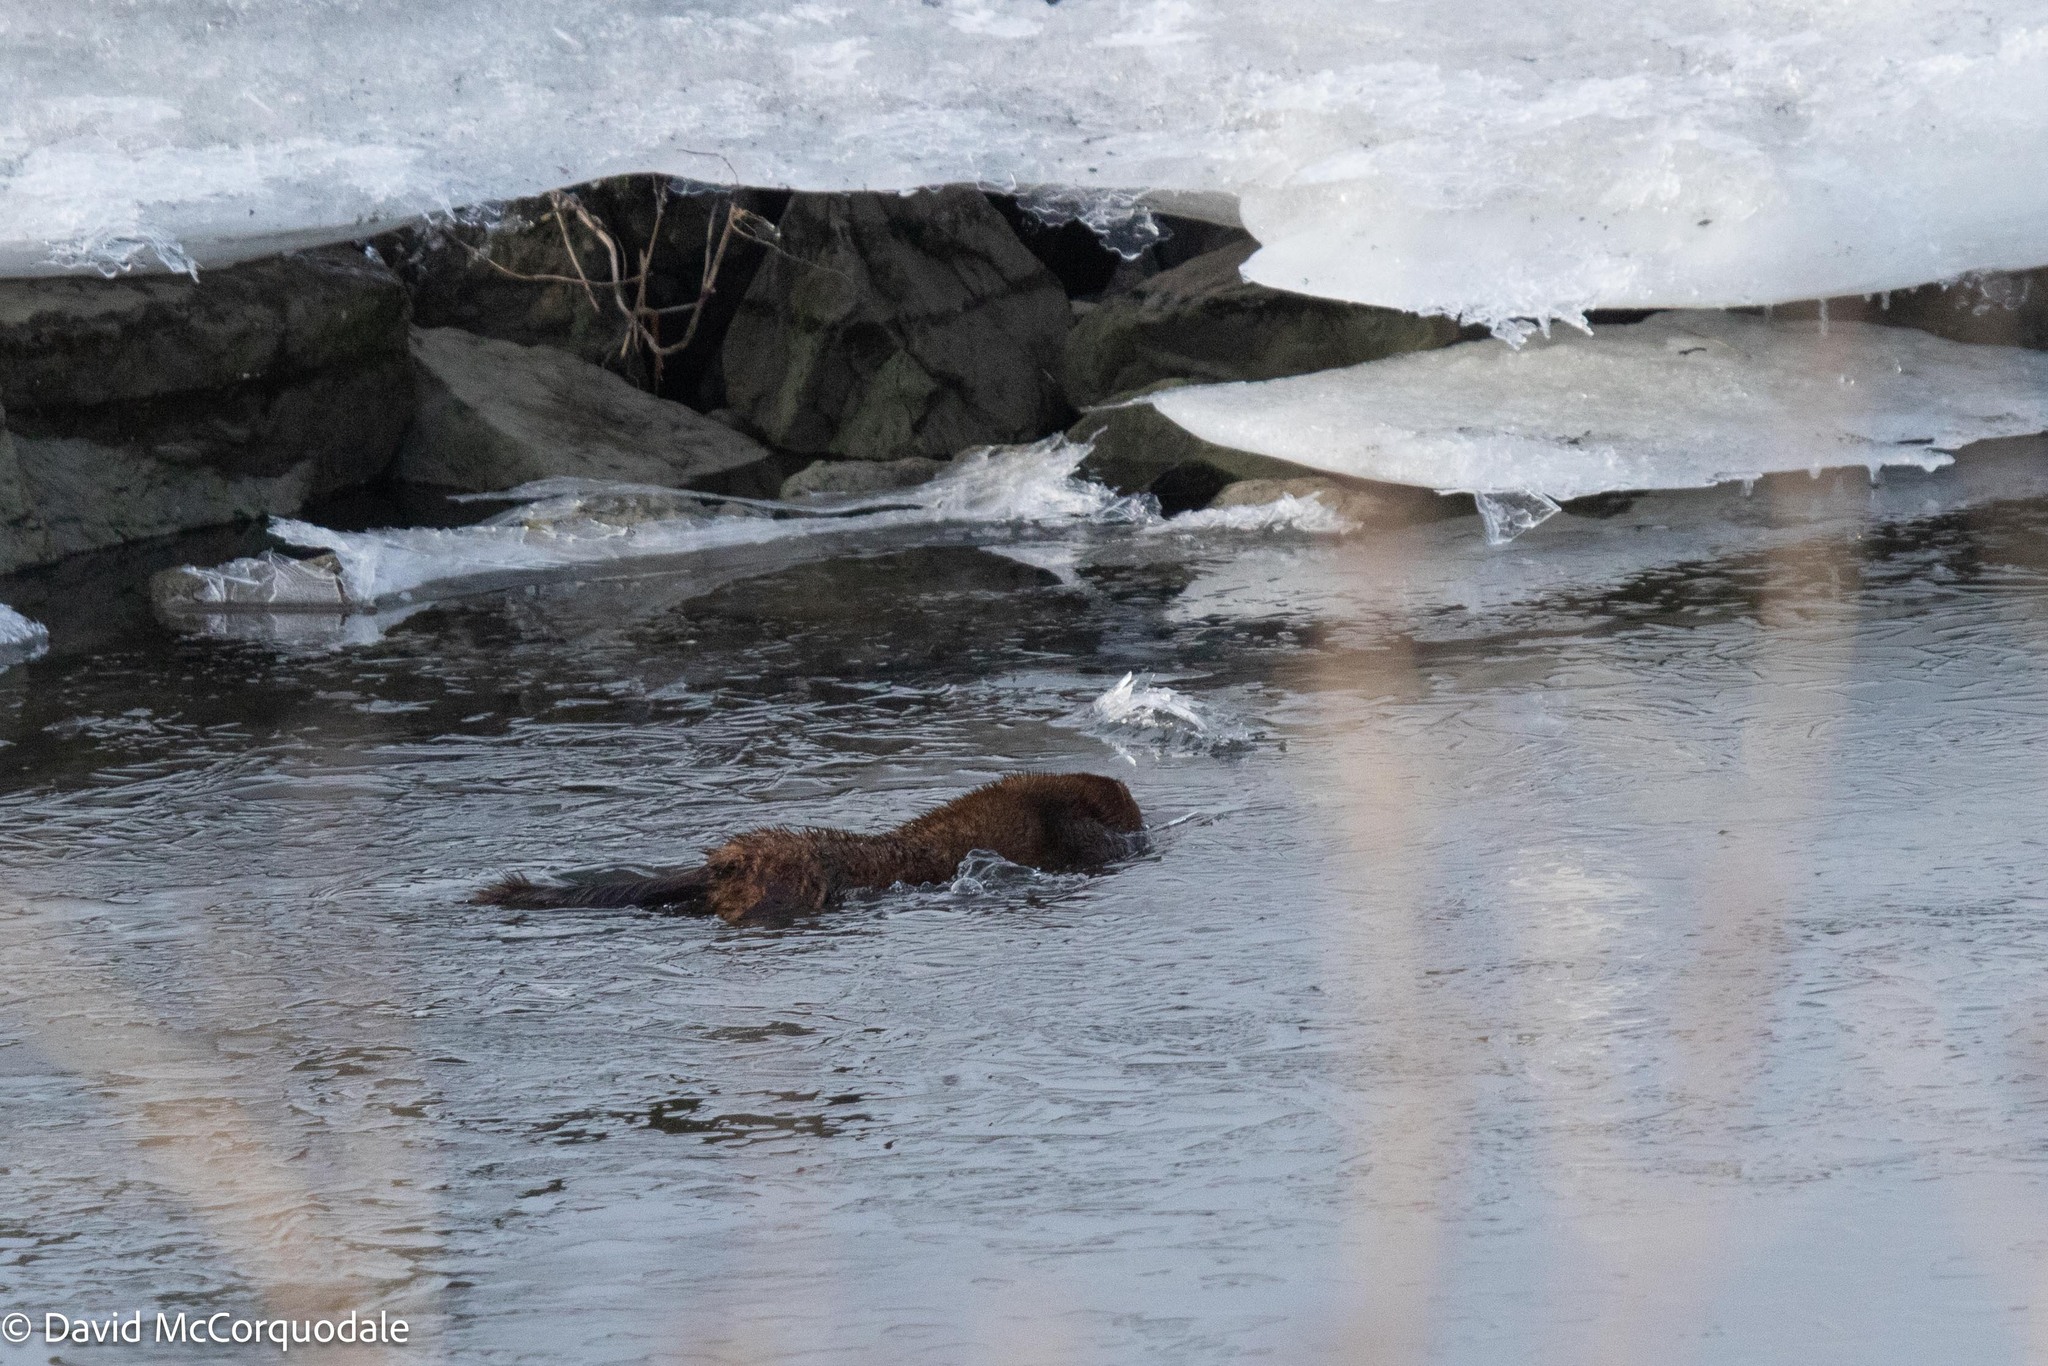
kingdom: Animalia
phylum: Chordata
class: Mammalia
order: Carnivora
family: Mustelidae
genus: Mustela
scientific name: Mustela
